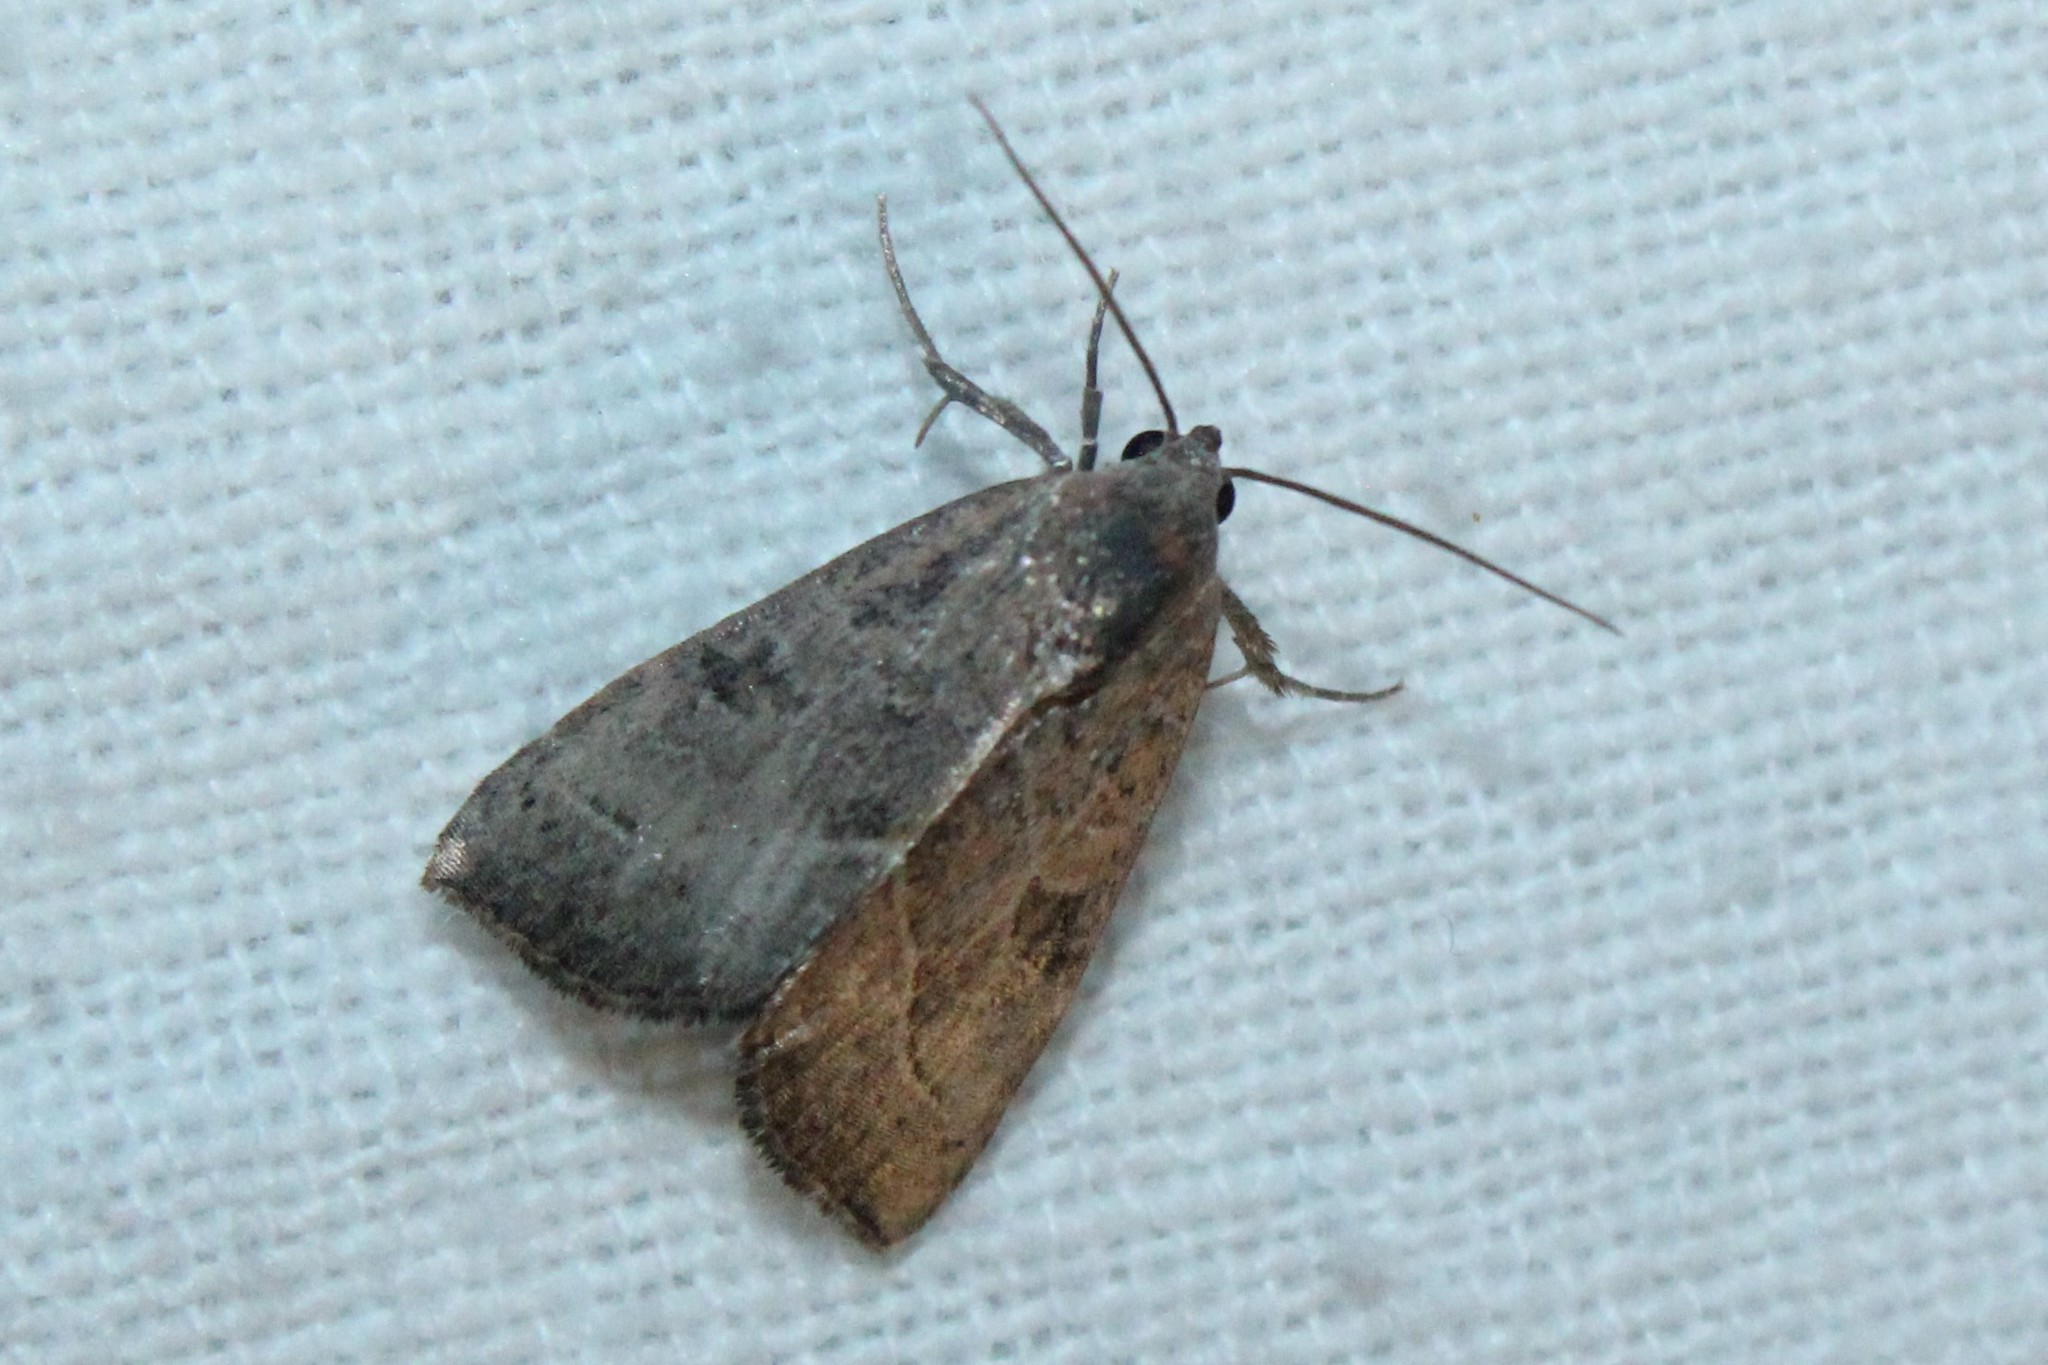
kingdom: Animalia
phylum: Arthropoda
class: Insecta
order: Lepidoptera
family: Noctuidae
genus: Galgula
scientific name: Galgula partita
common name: Wedgeling
